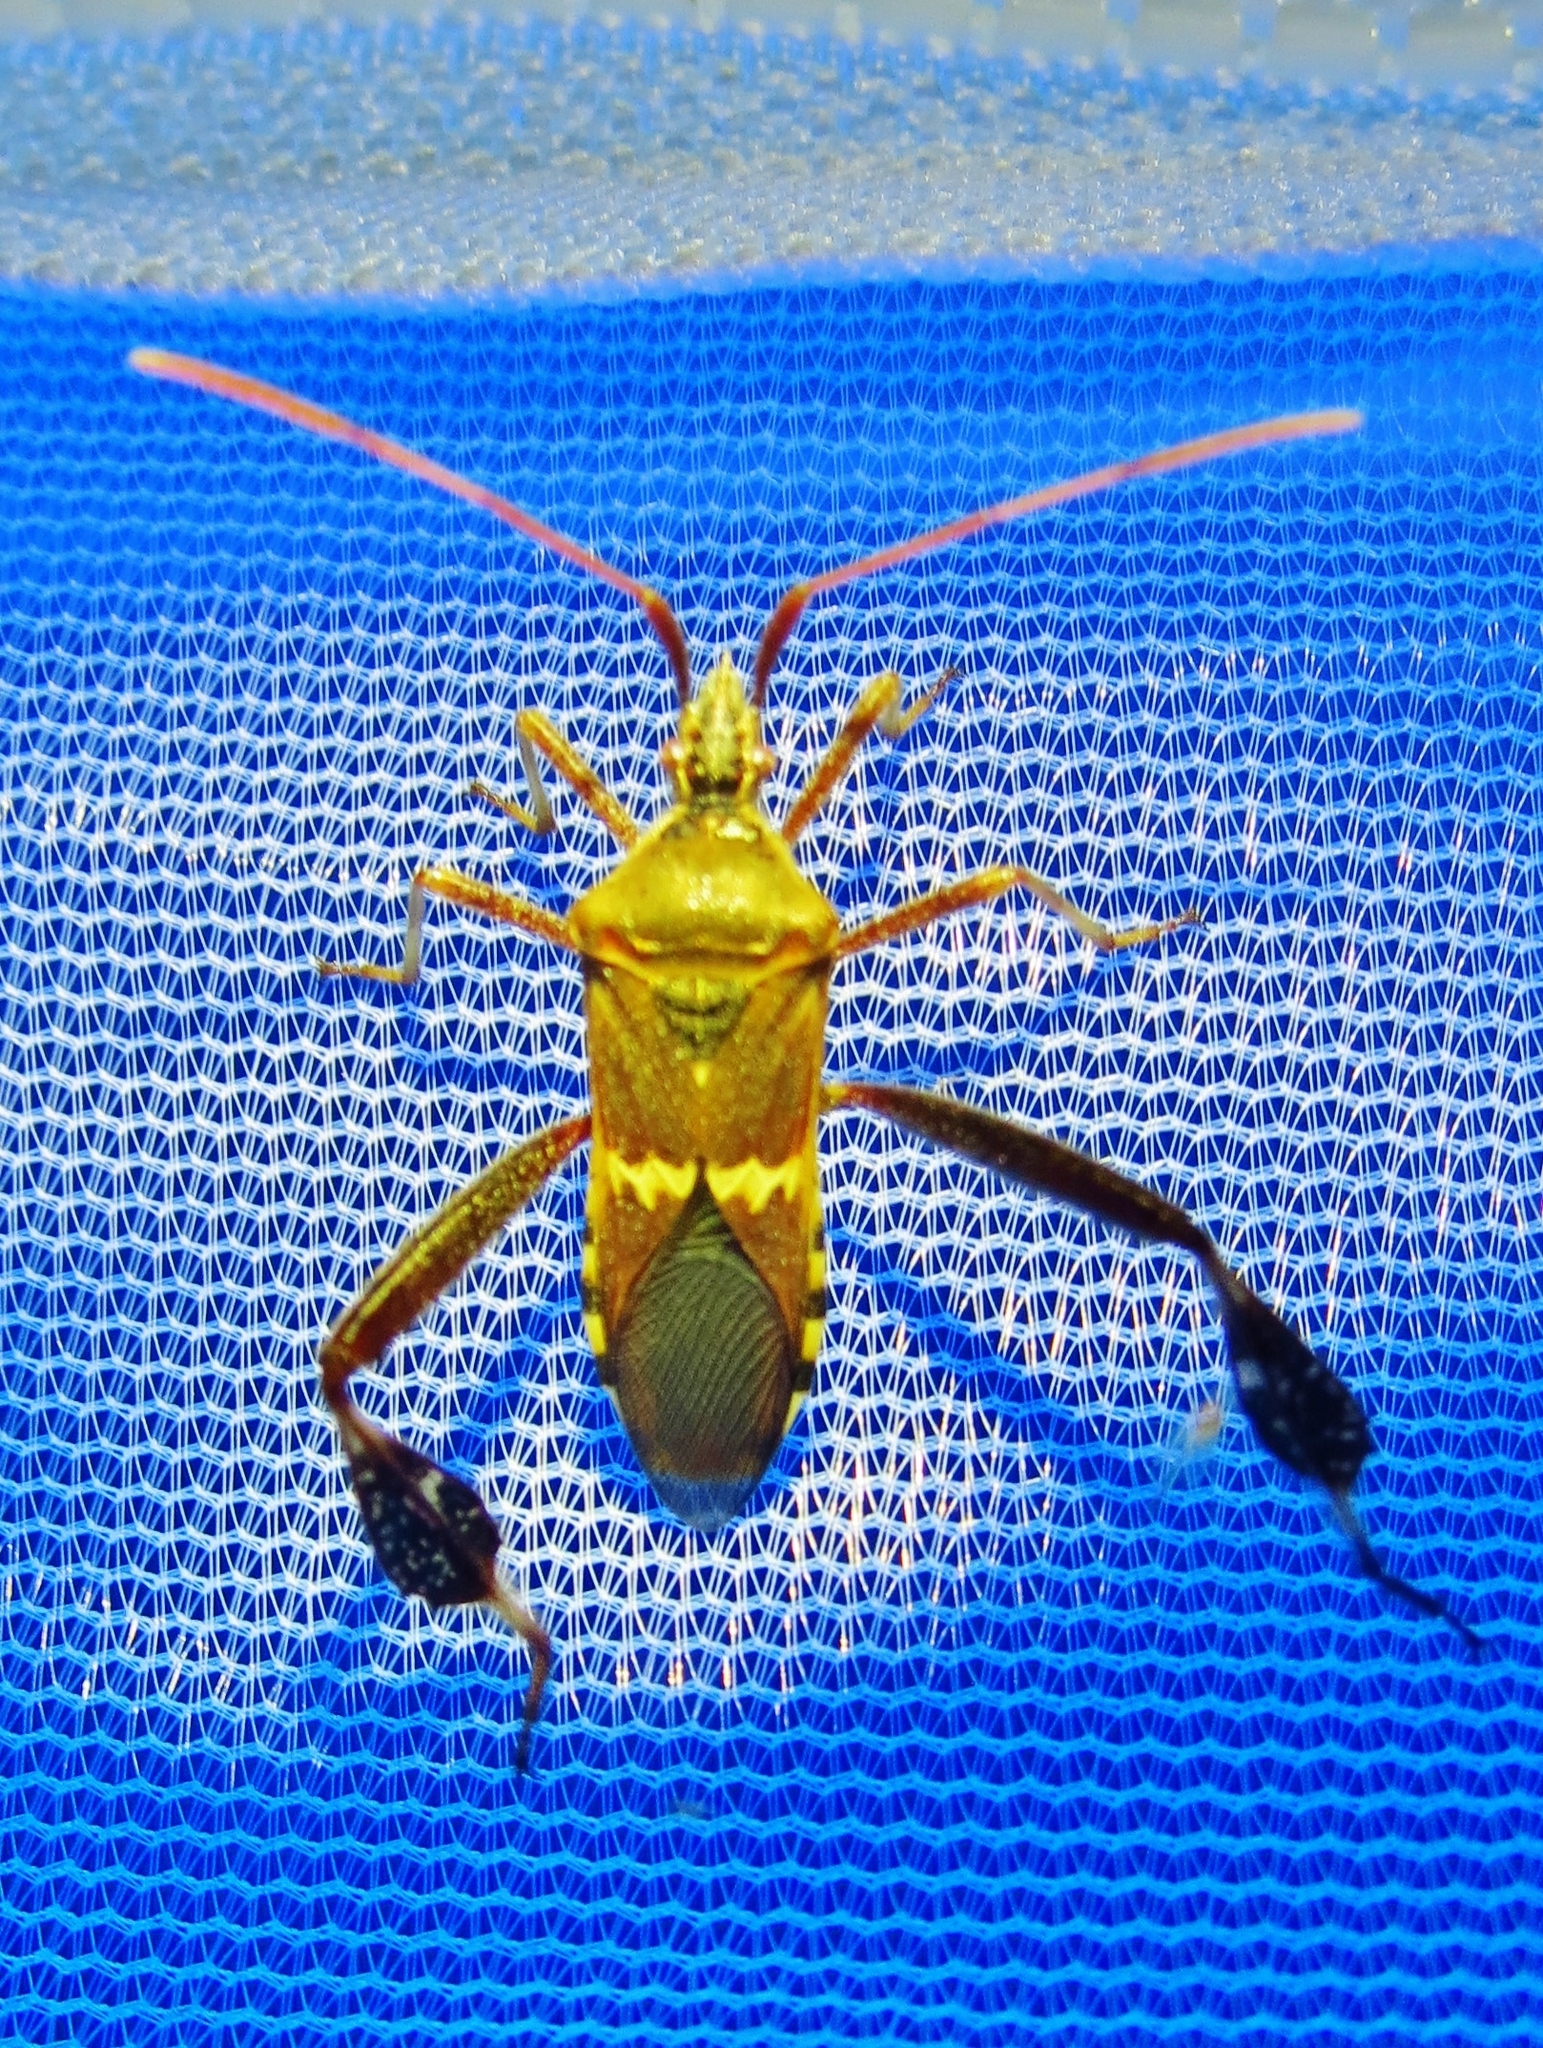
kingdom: Animalia
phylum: Arthropoda
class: Insecta
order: Hemiptera
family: Coreidae
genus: Leptoglossus
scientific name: Leptoglossus clypealis
